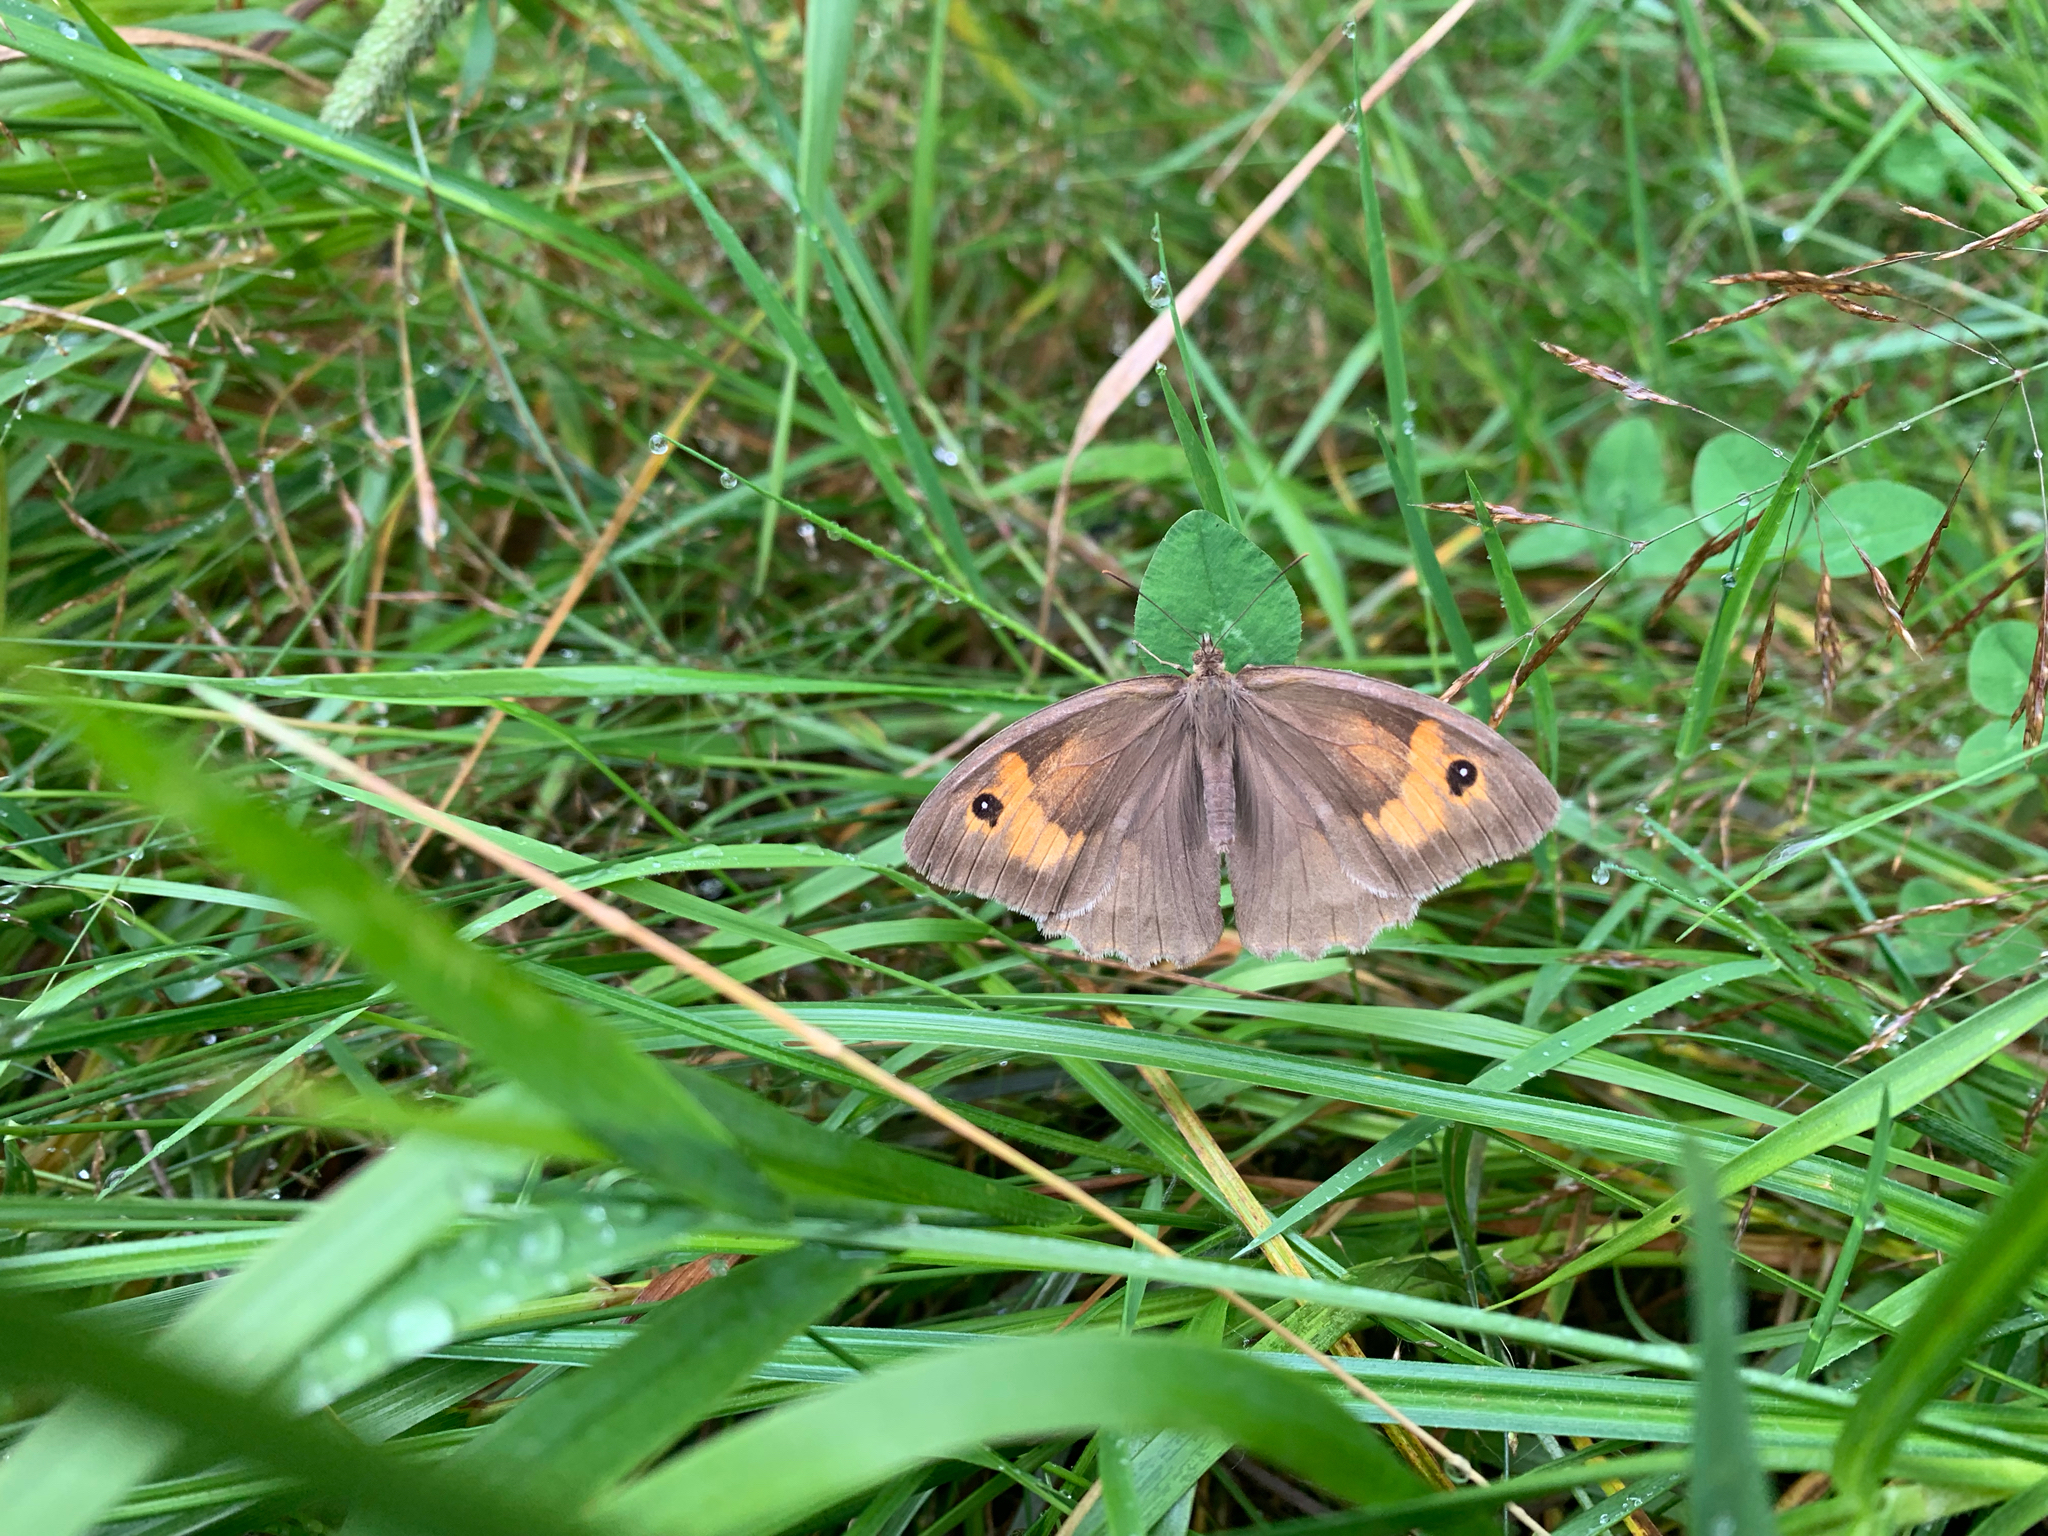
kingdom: Animalia
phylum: Arthropoda
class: Insecta
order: Lepidoptera
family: Nymphalidae
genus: Maniola
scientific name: Maniola jurtina
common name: Meadow brown
